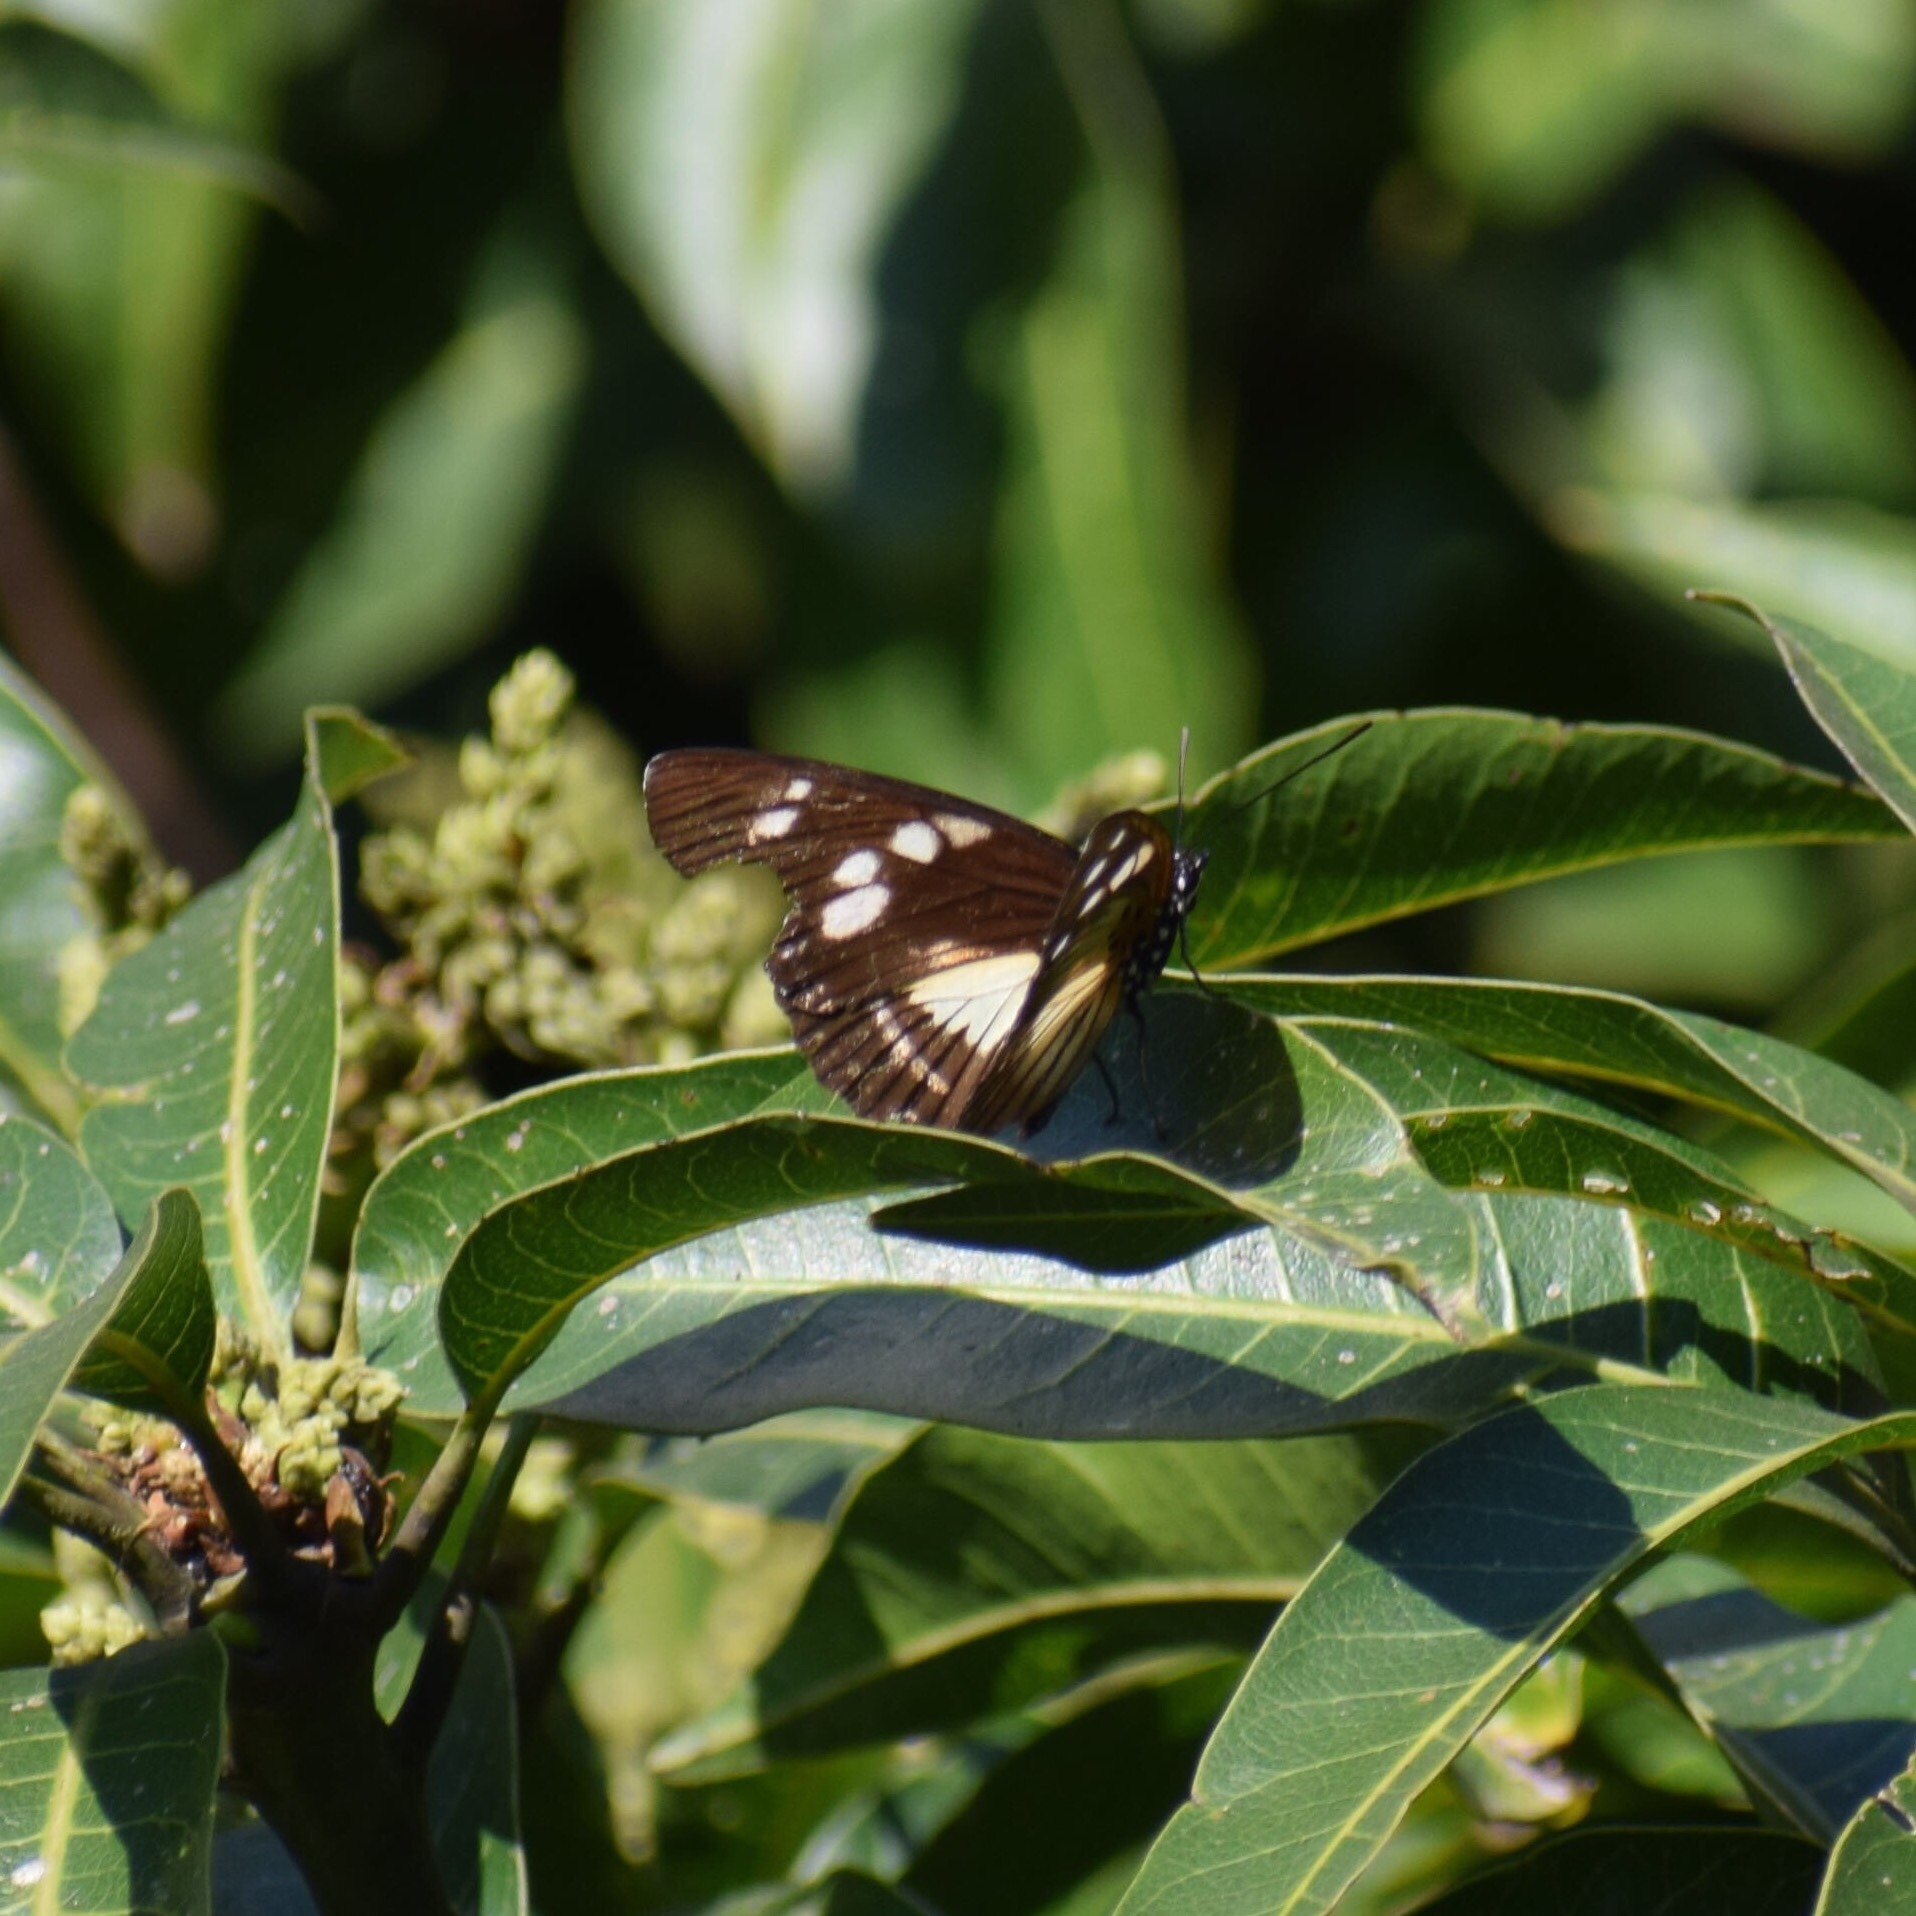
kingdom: Animalia
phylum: Arthropoda
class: Insecta
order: Lepidoptera
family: Nymphalidae
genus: Chloropoea
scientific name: Chloropoea lucretia
